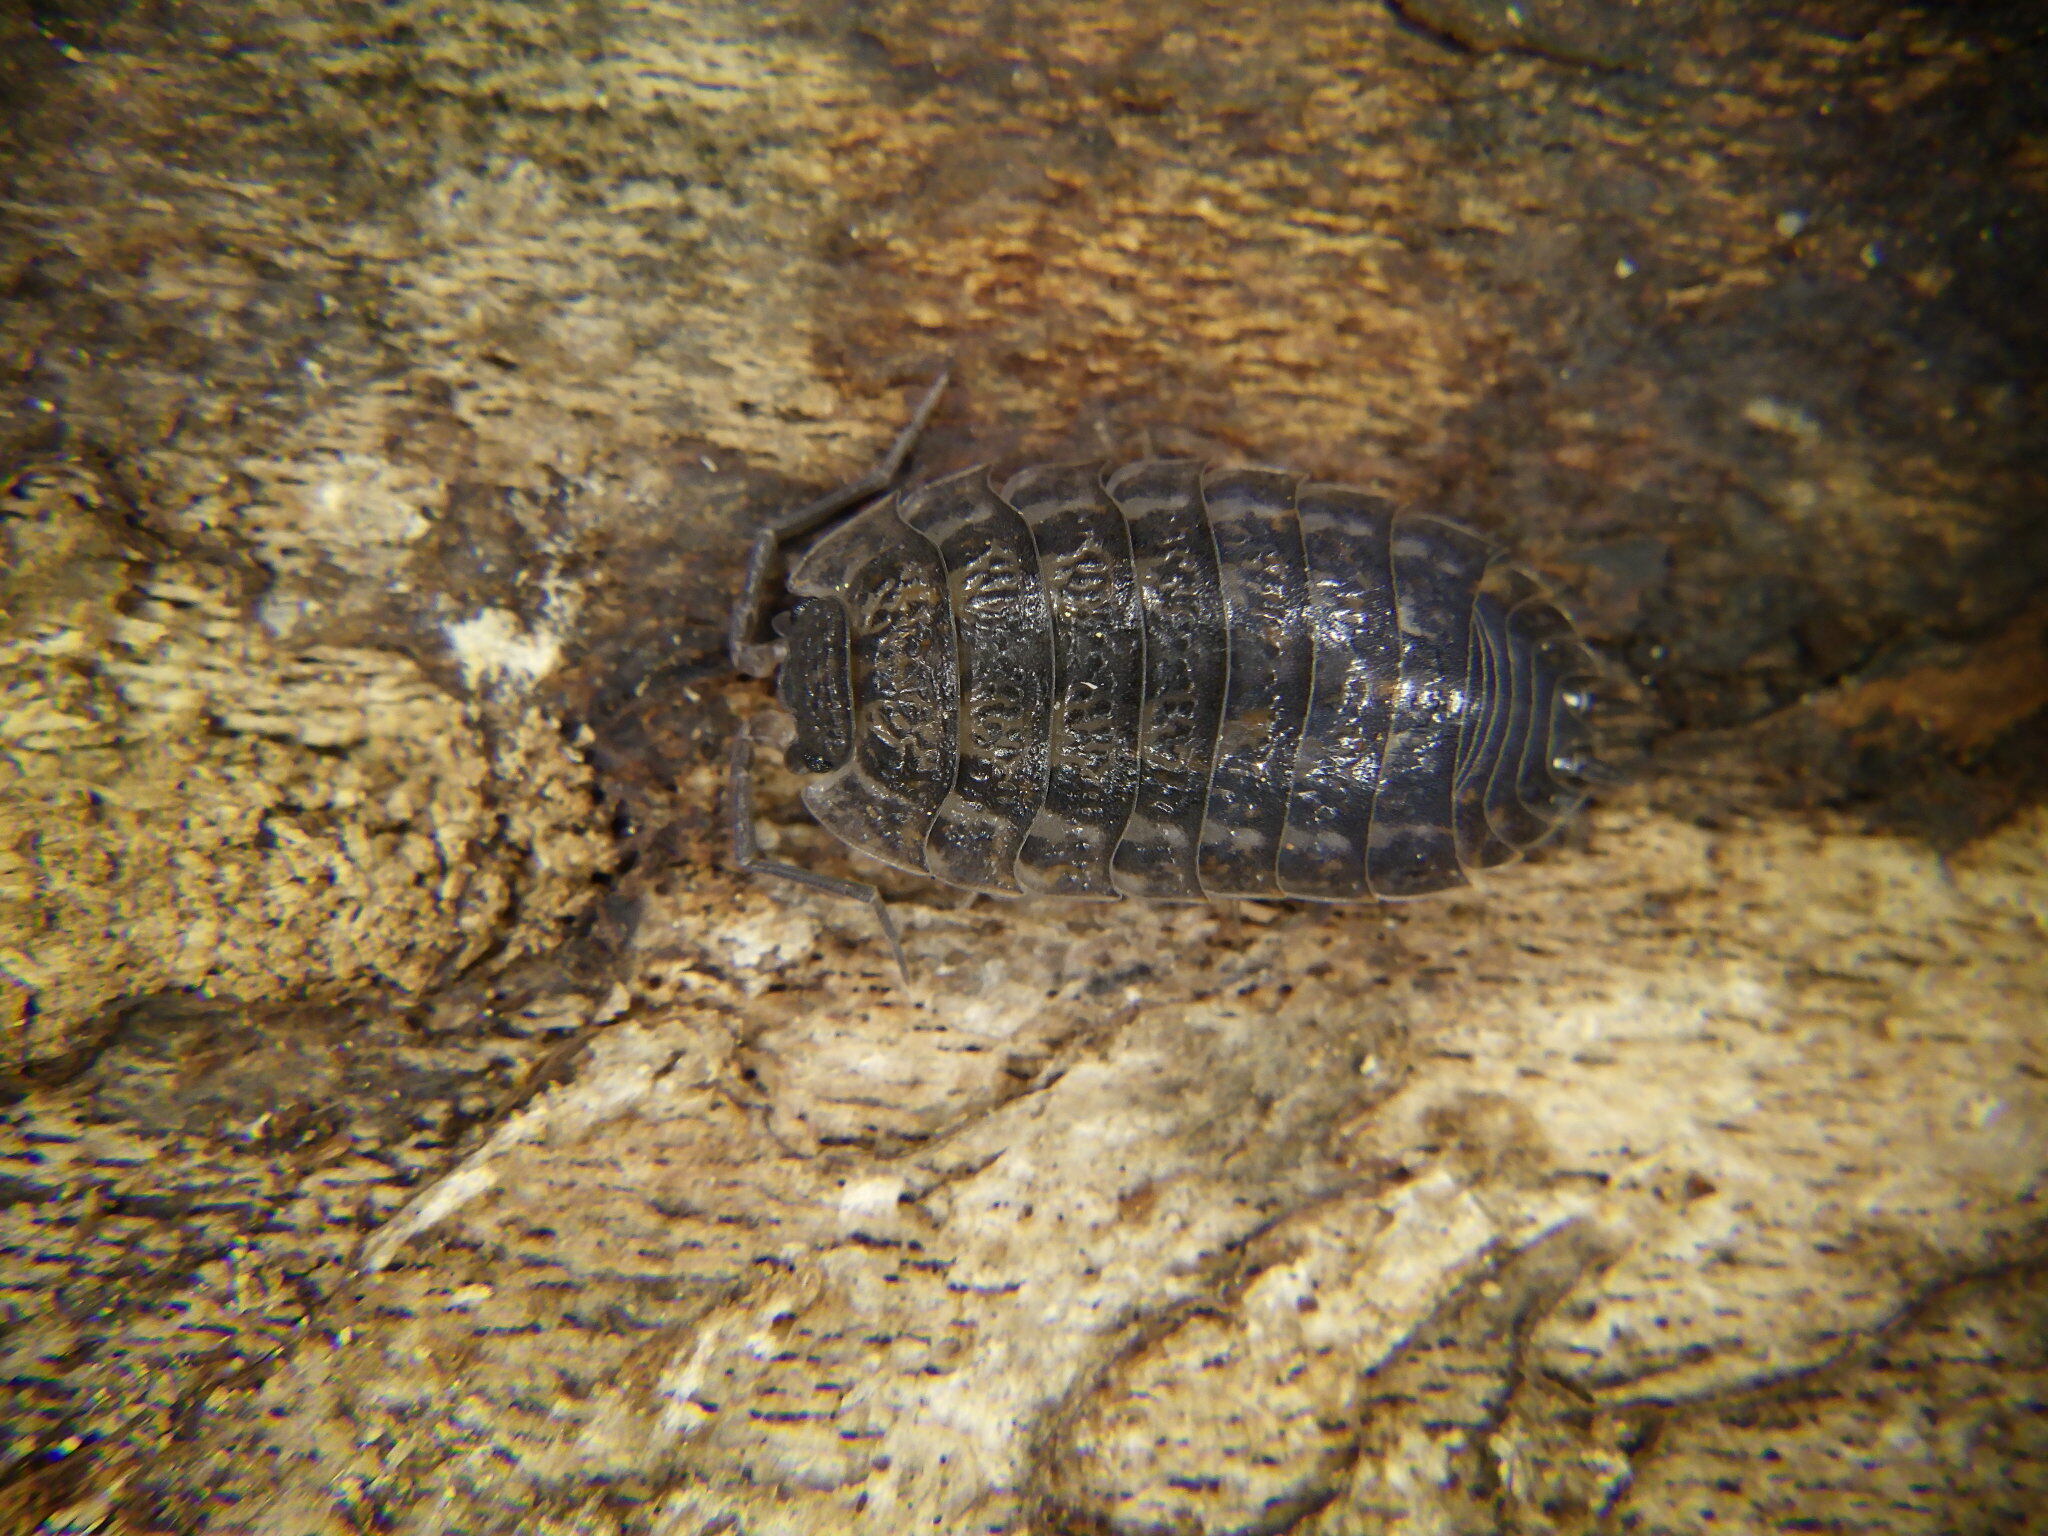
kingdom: Animalia
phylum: Arthropoda
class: Malacostraca
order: Isopoda
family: Trachelipodidae
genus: Trachelipus
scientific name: Trachelipus rathkii
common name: Isopod
